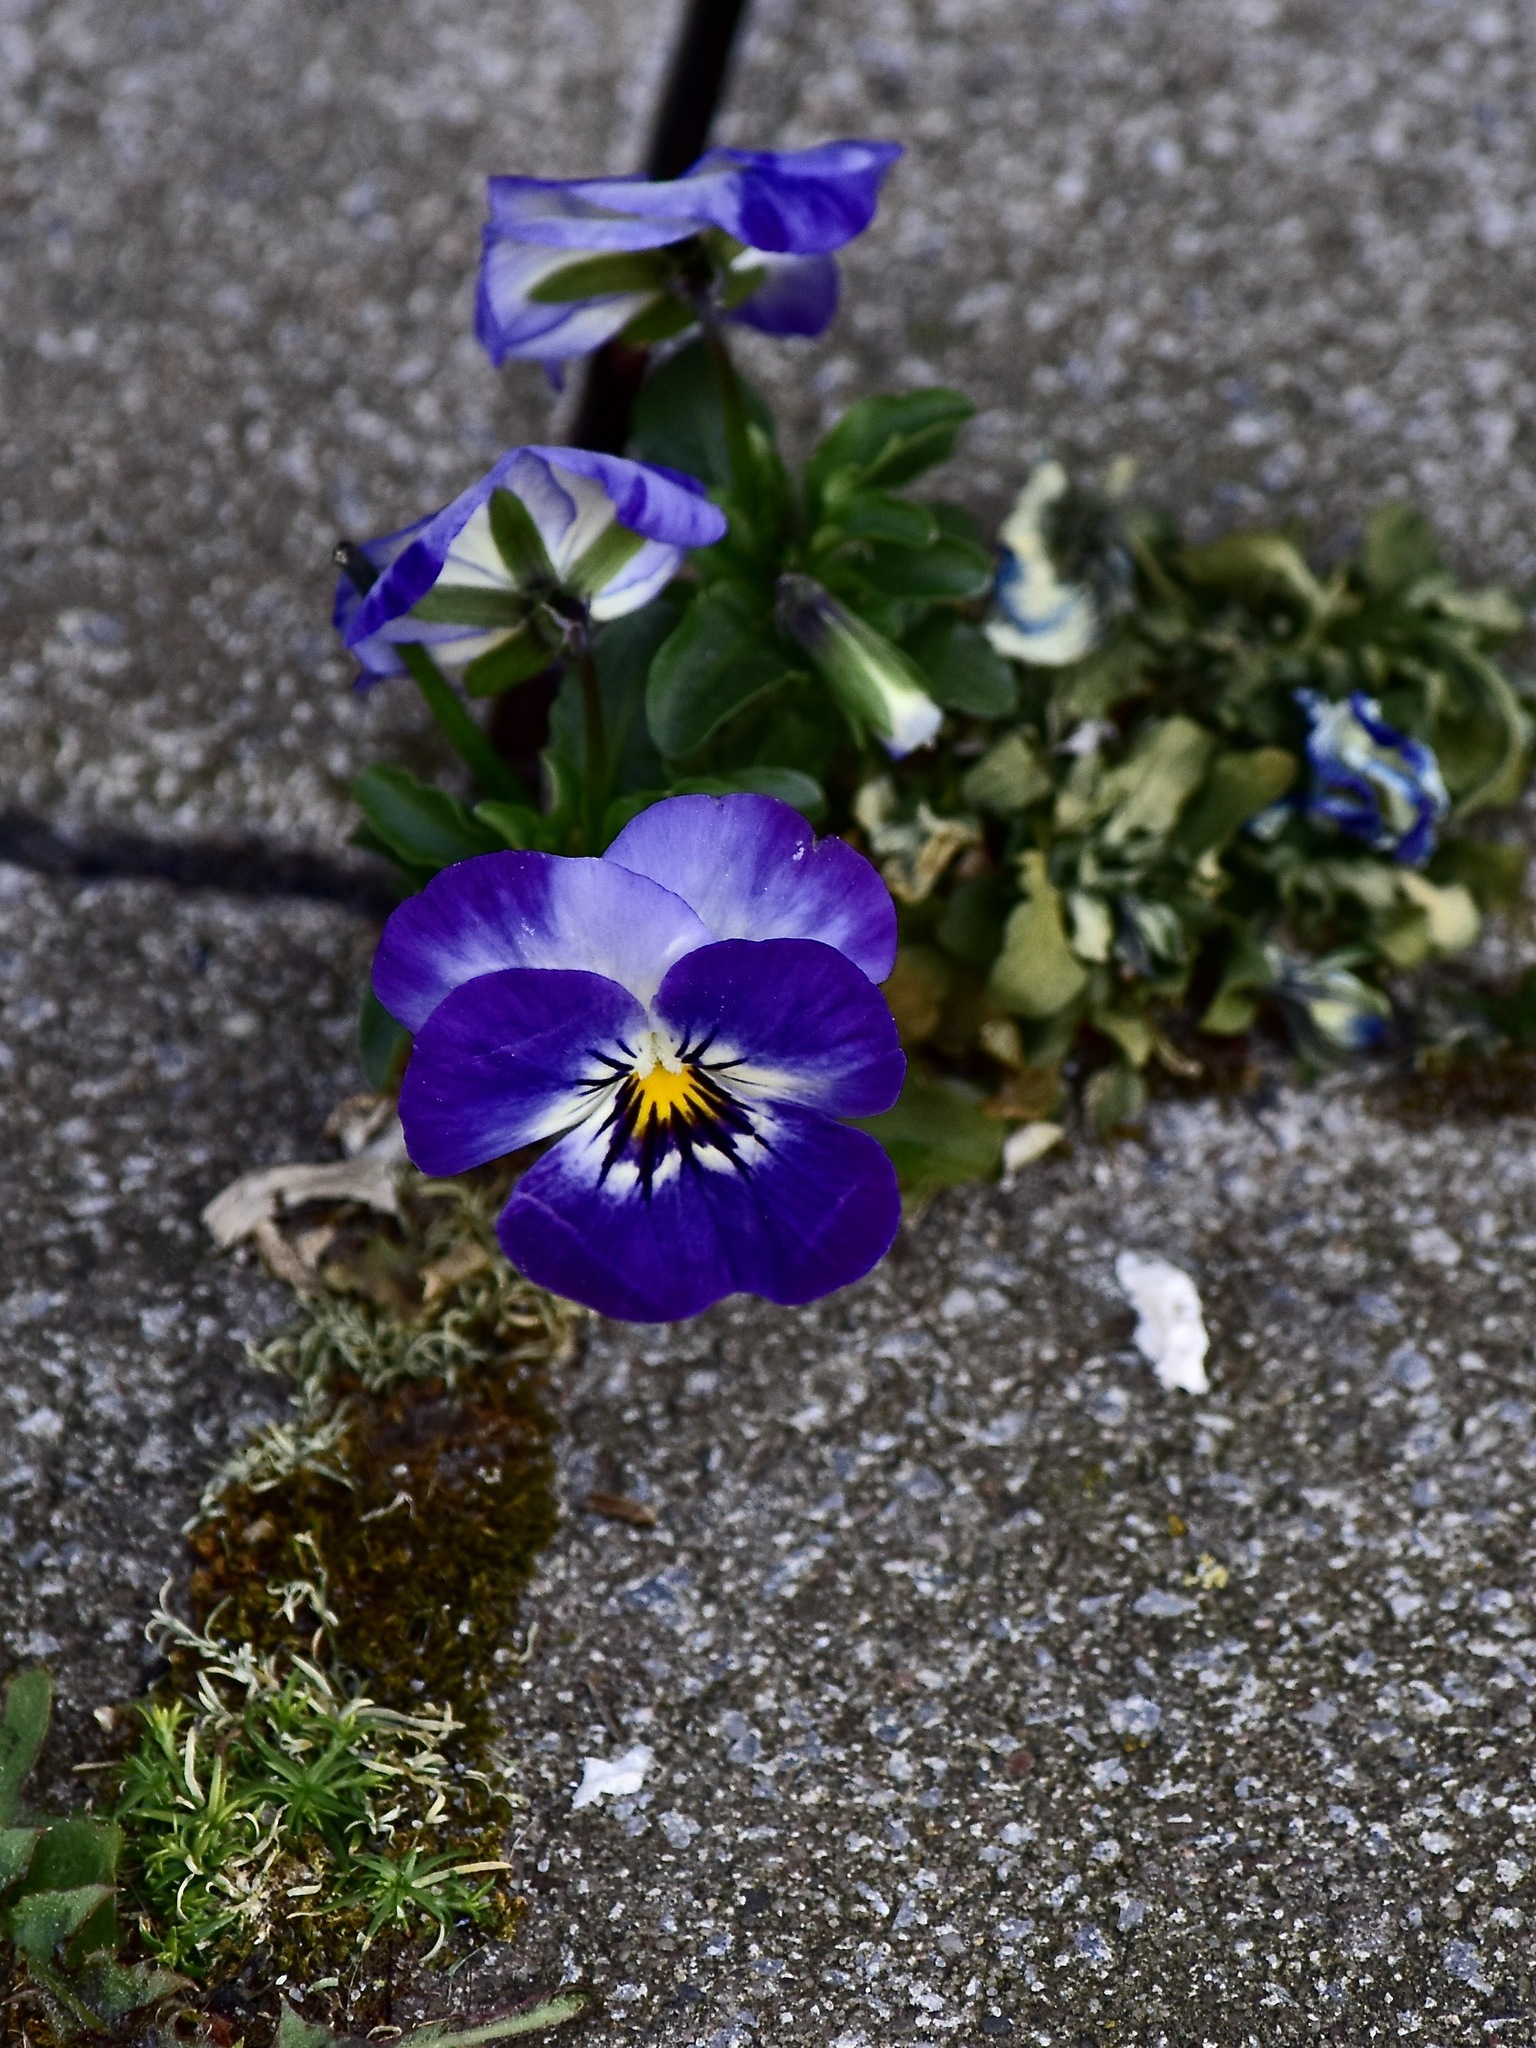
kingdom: Plantae
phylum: Tracheophyta
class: Magnoliopsida
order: Malpighiales
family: Violaceae
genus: Viola
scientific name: Viola wittrockiana
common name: Garden pansy
